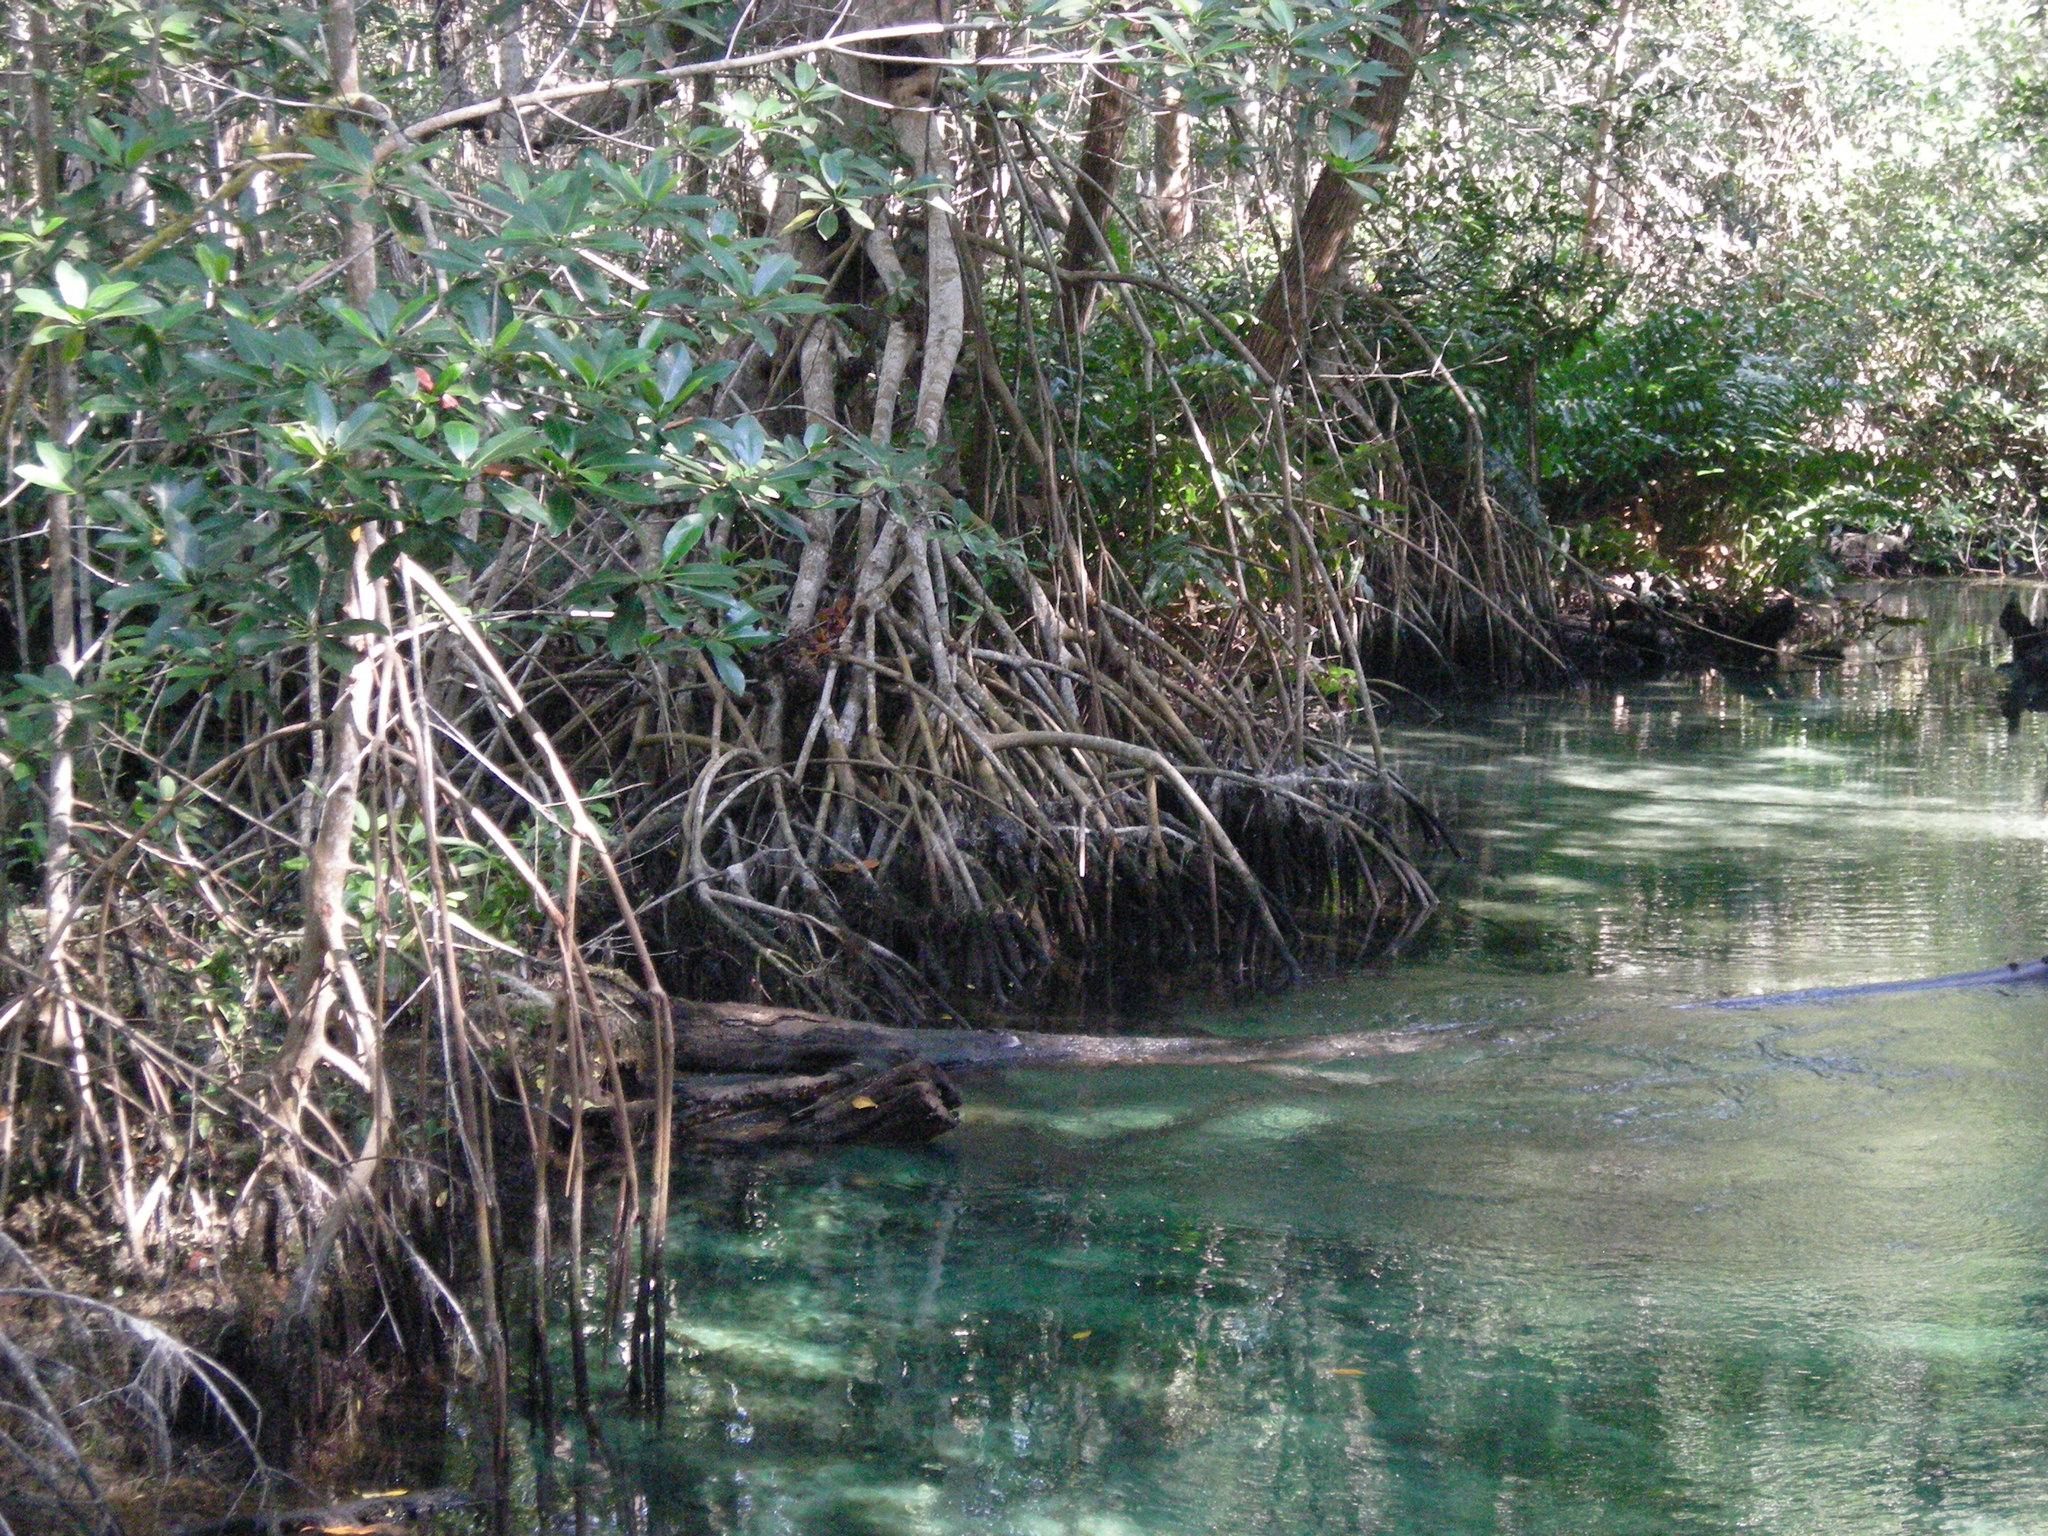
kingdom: Plantae
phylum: Tracheophyta
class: Polypodiopsida
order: Polypodiales
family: Pteridaceae
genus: Acrostichum
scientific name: Acrostichum aureum
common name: Leather fern
